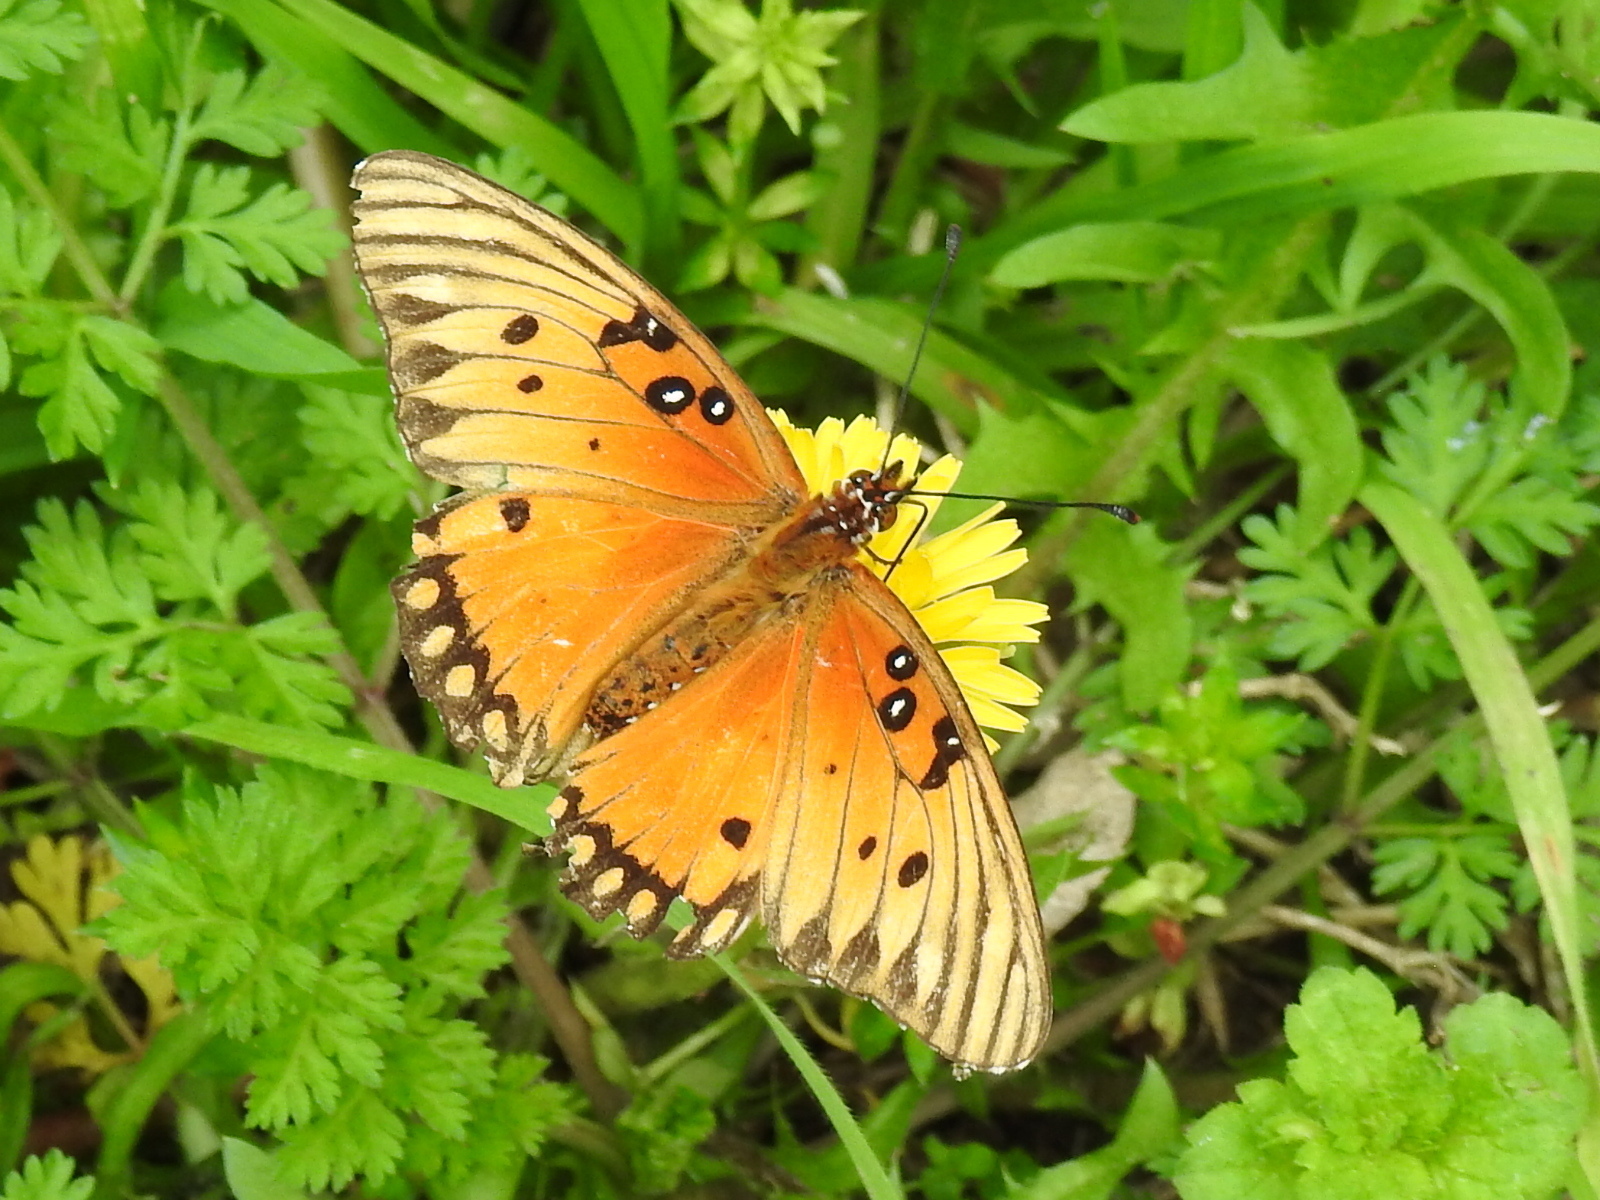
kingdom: Animalia
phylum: Arthropoda
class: Insecta
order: Lepidoptera
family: Nymphalidae
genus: Dione
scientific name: Dione vanillae
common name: Gulf fritillary
